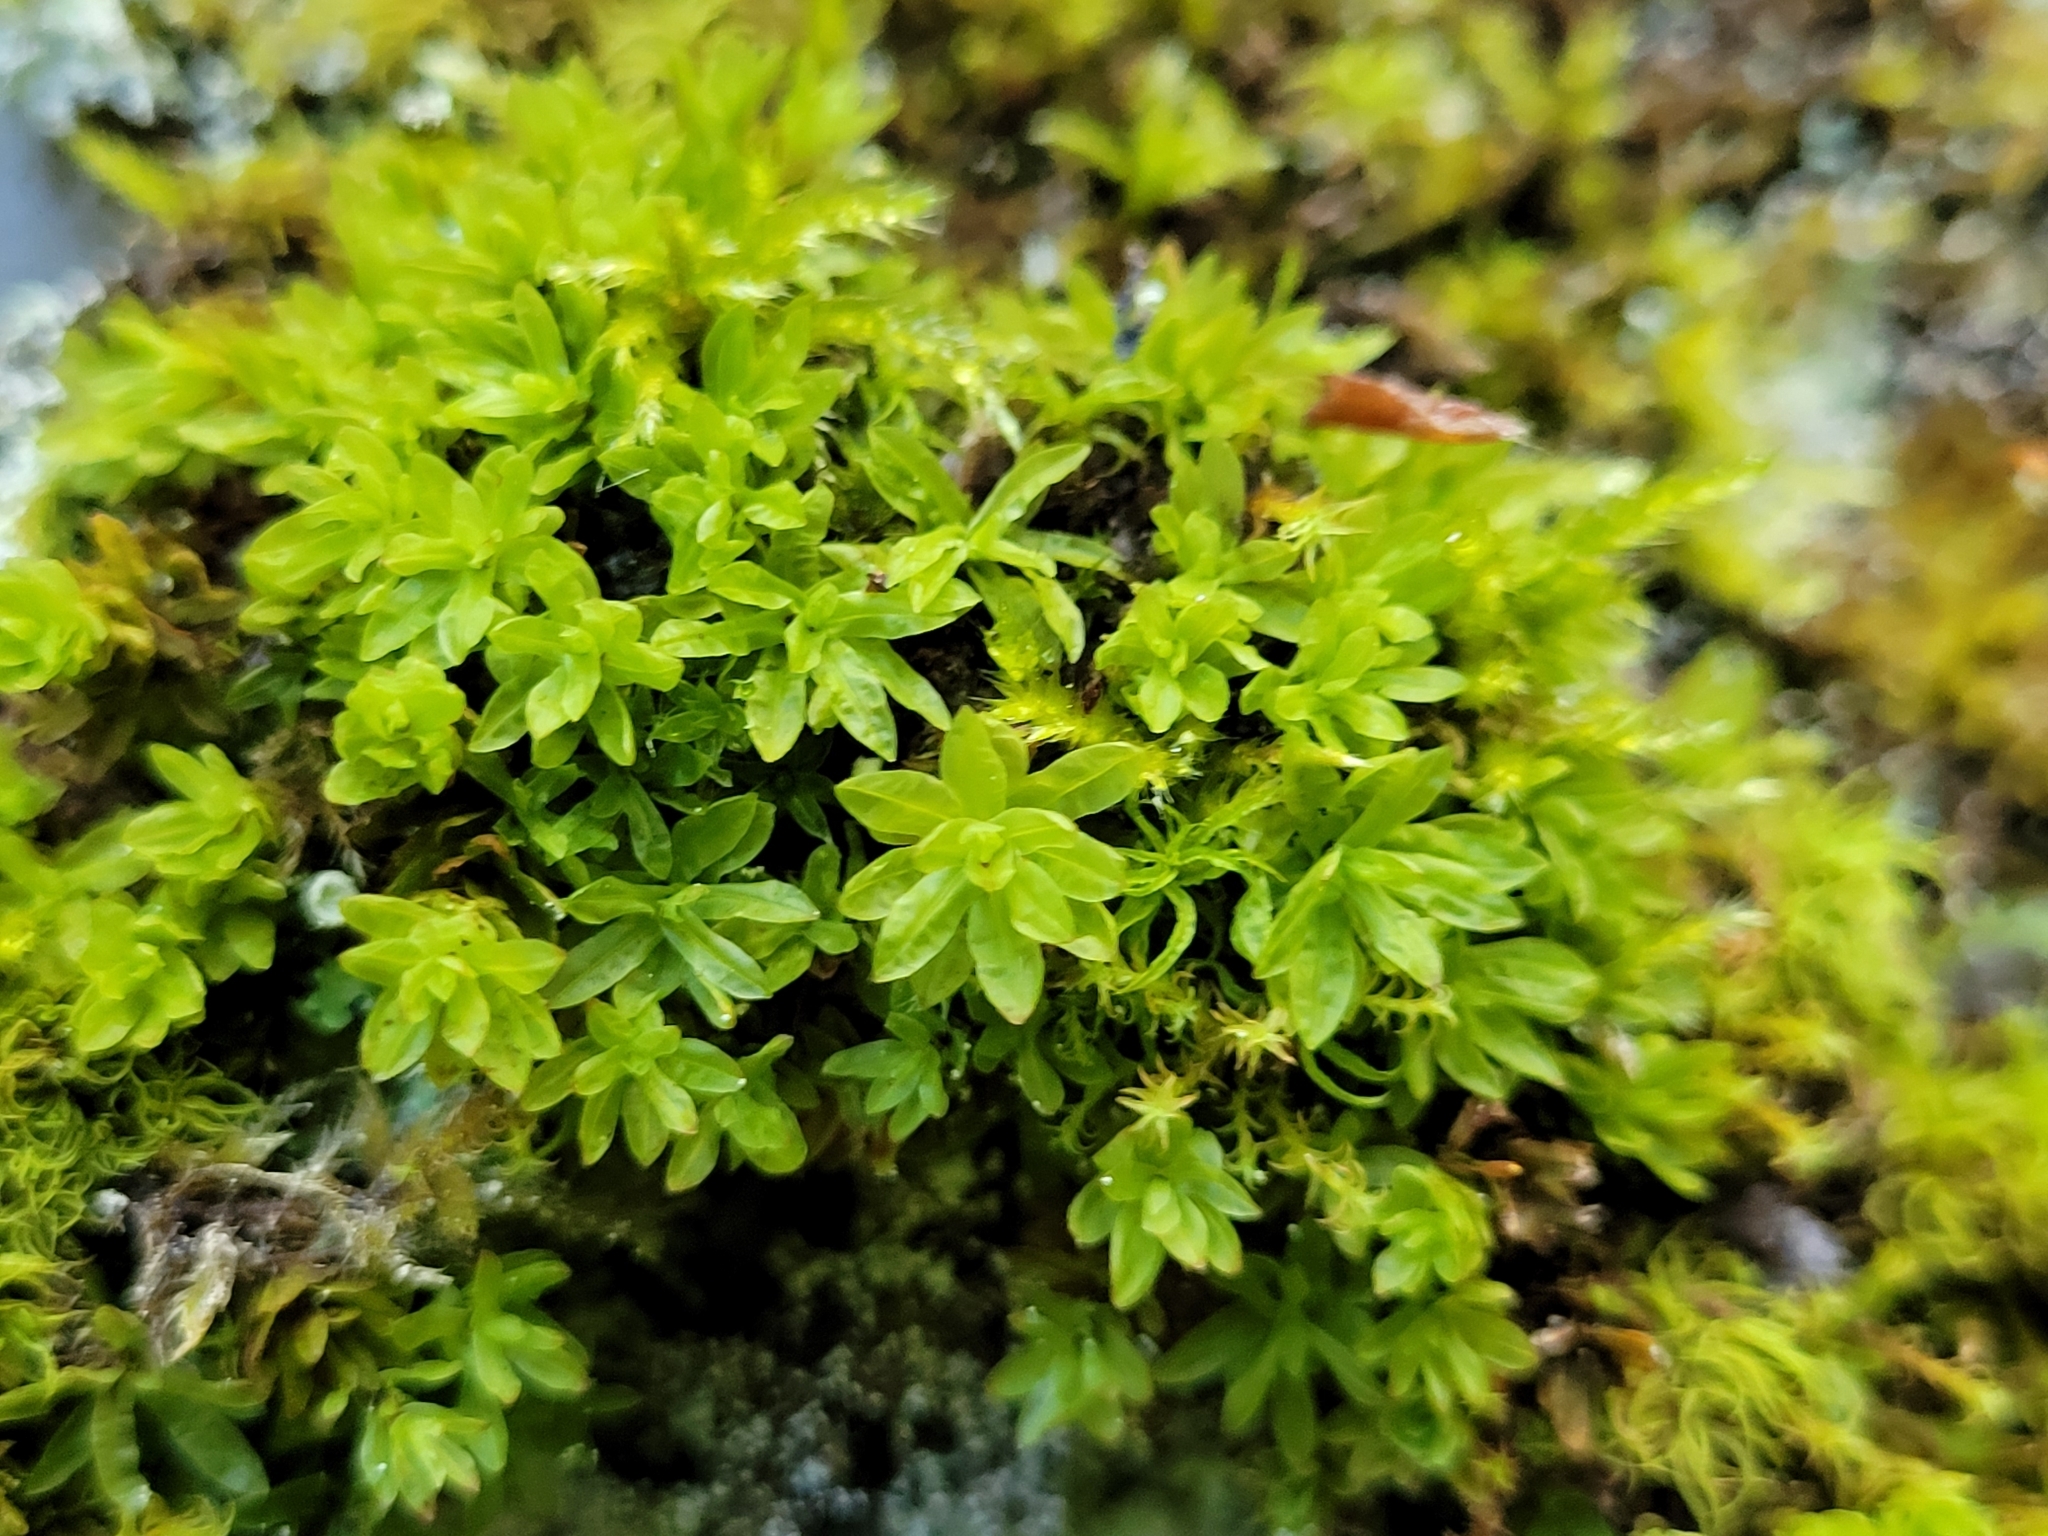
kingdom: Plantae
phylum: Bryophyta
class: Bryopsida
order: Encalyptales
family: Encalyptaceae
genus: Encalypta
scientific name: Encalypta streptocarpa
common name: Spiral extinguisher-moss
